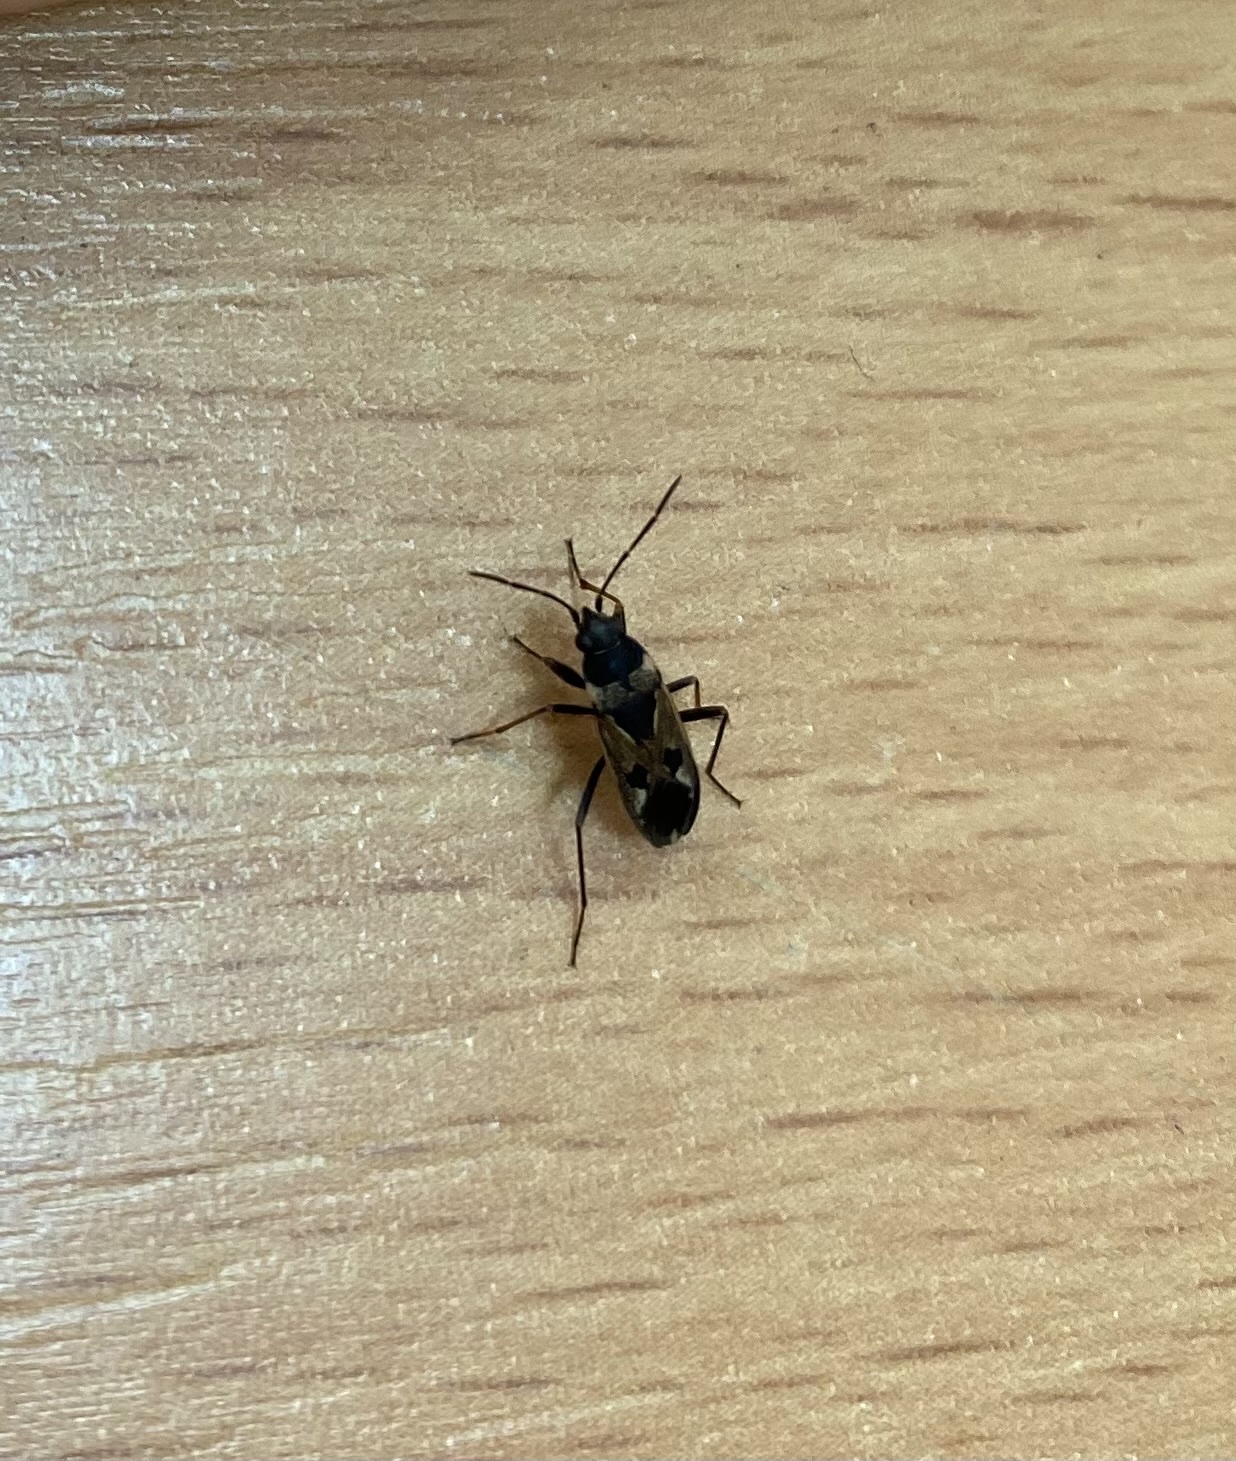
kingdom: Animalia
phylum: Arthropoda
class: Insecta
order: Hemiptera
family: Rhyparochromidae
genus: Rhyparochromus
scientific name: Rhyparochromus vulgaris
